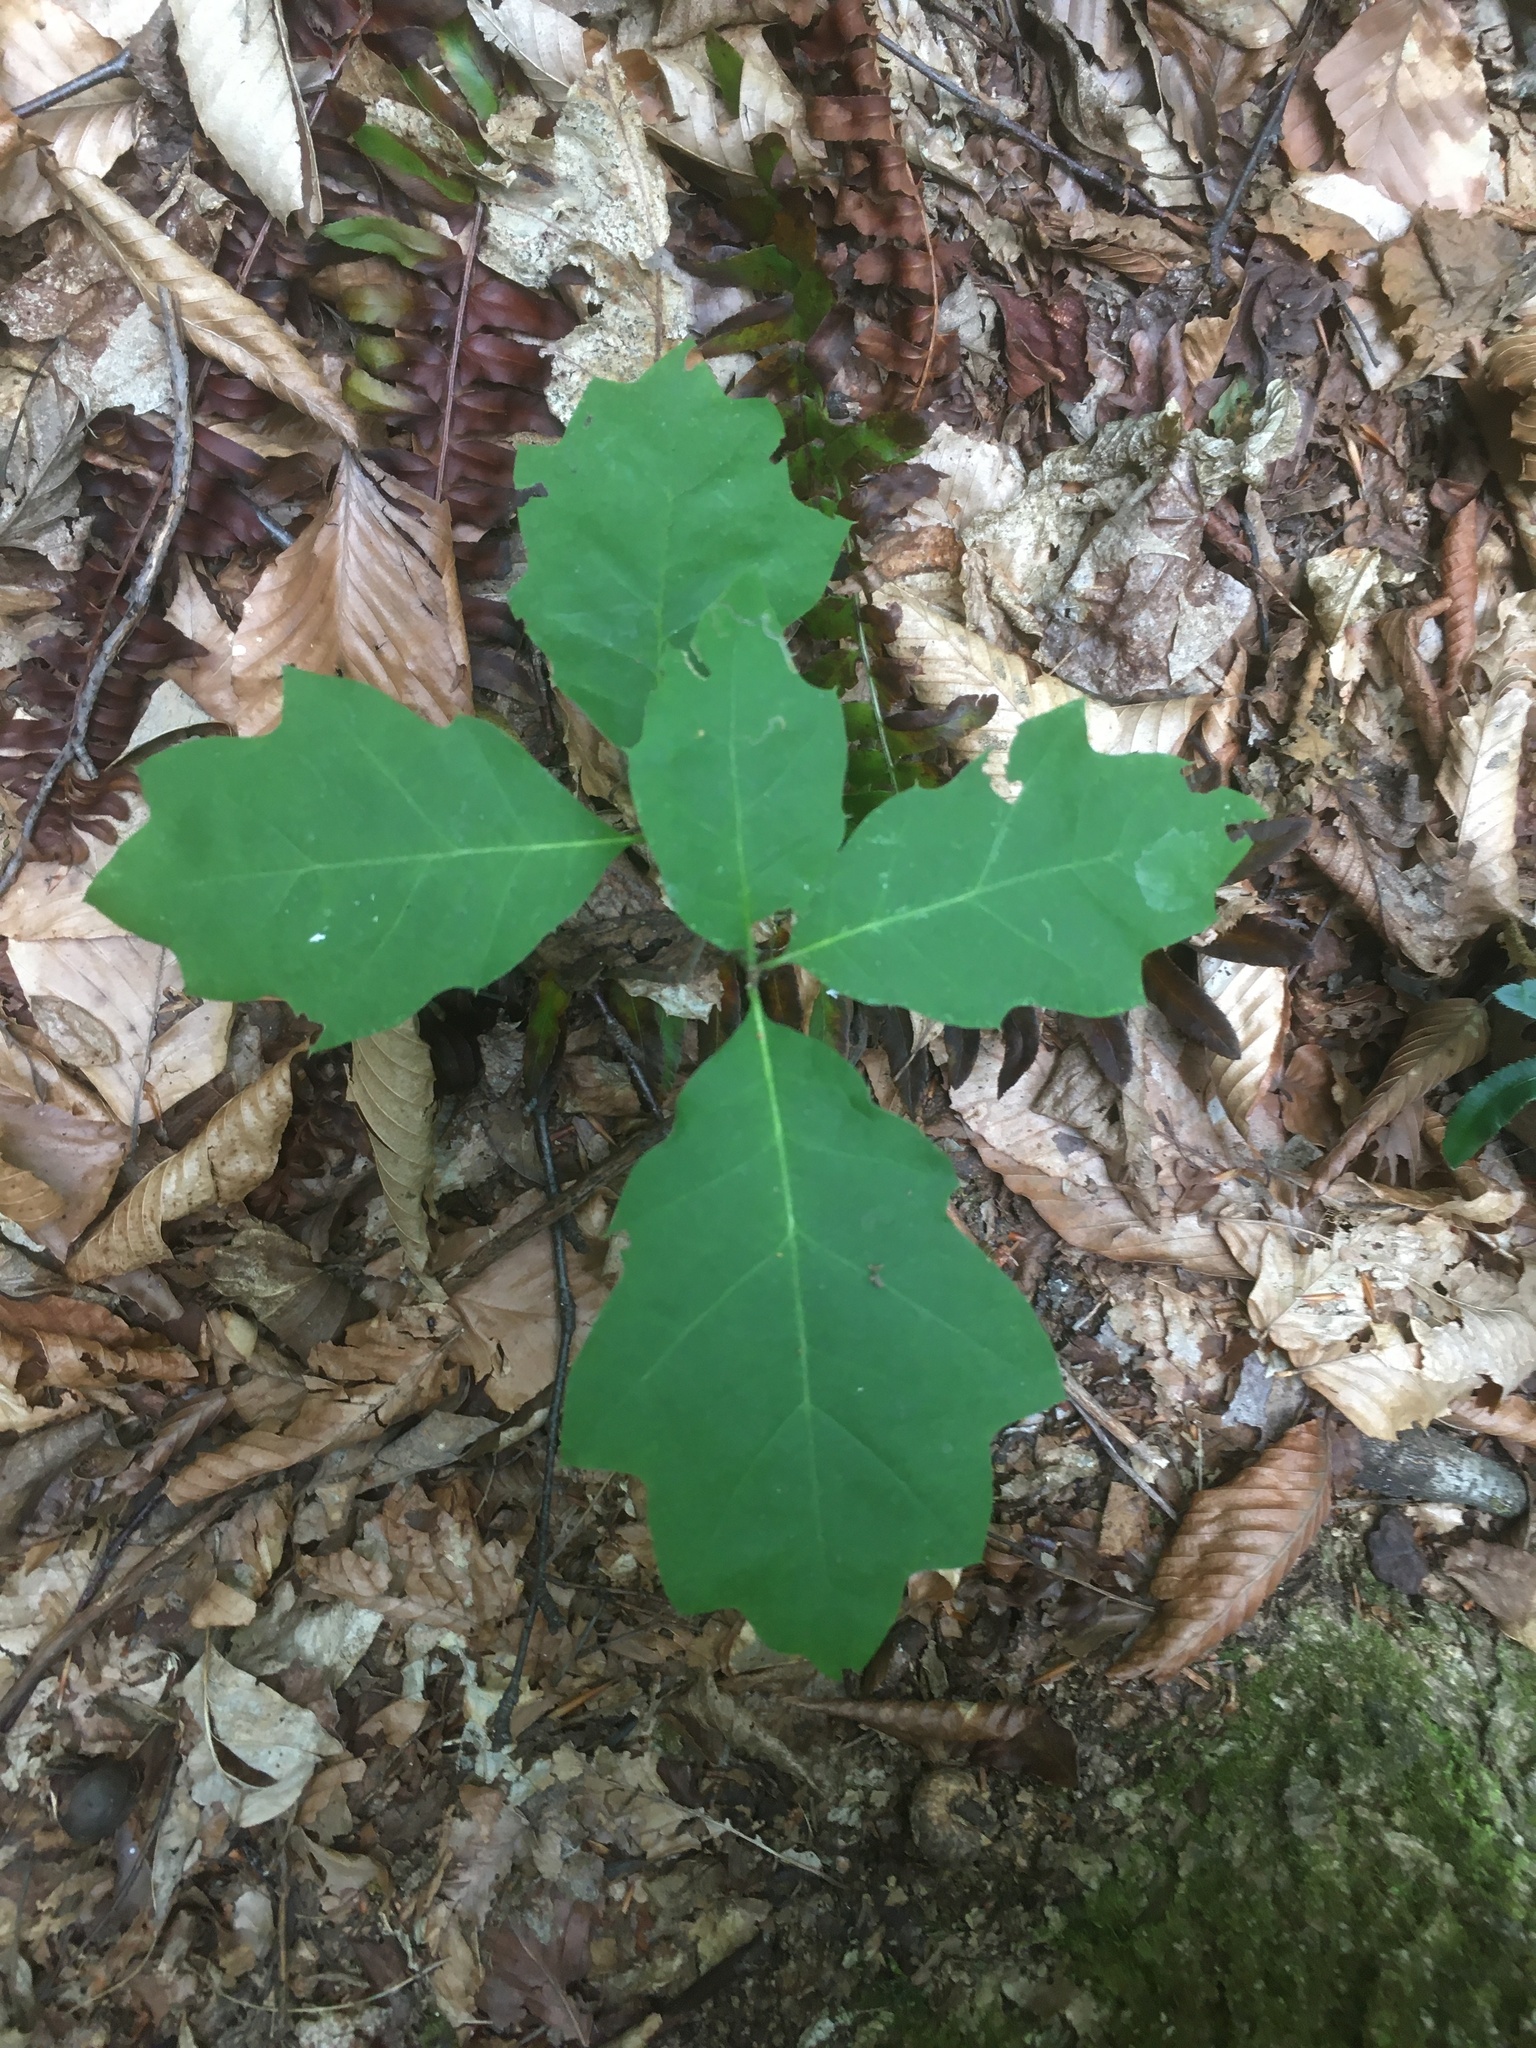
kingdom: Plantae
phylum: Tracheophyta
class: Magnoliopsida
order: Fagales
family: Fagaceae
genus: Quercus
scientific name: Quercus rubra
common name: Red oak
